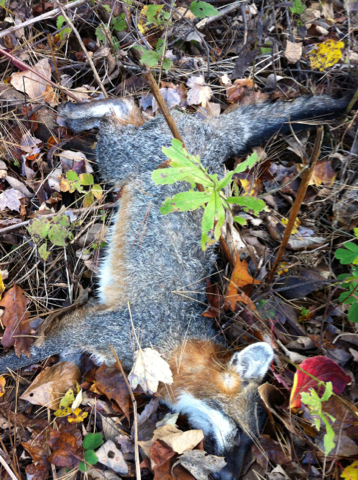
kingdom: Animalia
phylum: Chordata
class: Mammalia
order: Carnivora
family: Canidae
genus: Urocyon
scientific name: Urocyon cinereoargenteus
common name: Gray fox
